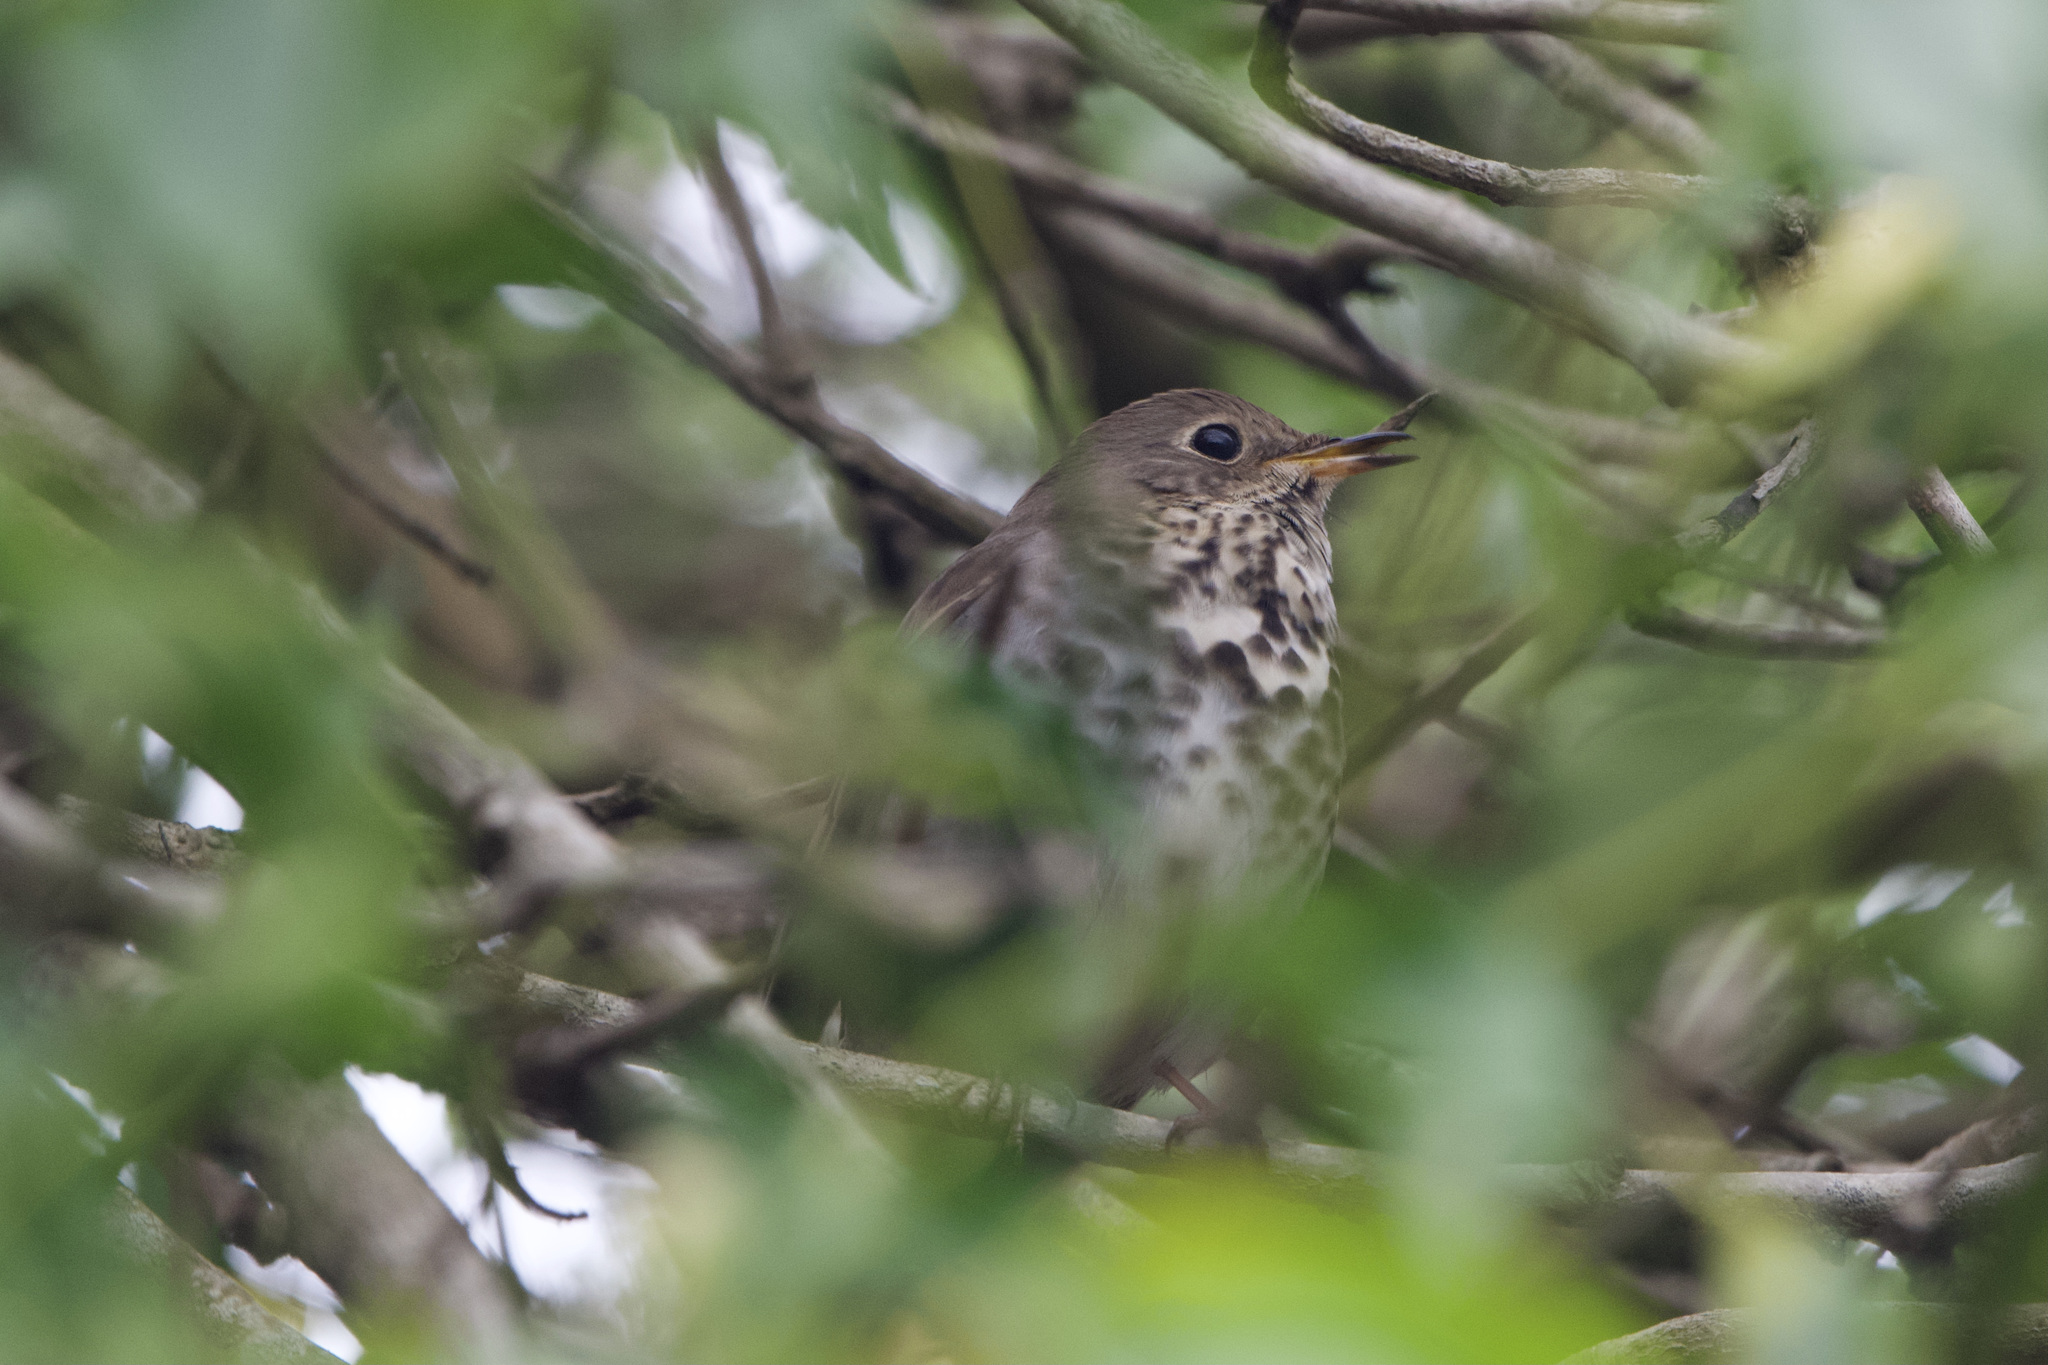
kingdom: Animalia
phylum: Chordata
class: Aves
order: Passeriformes
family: Turdidae
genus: Catharus
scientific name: Catharus guttatus
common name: Hermit thrush
